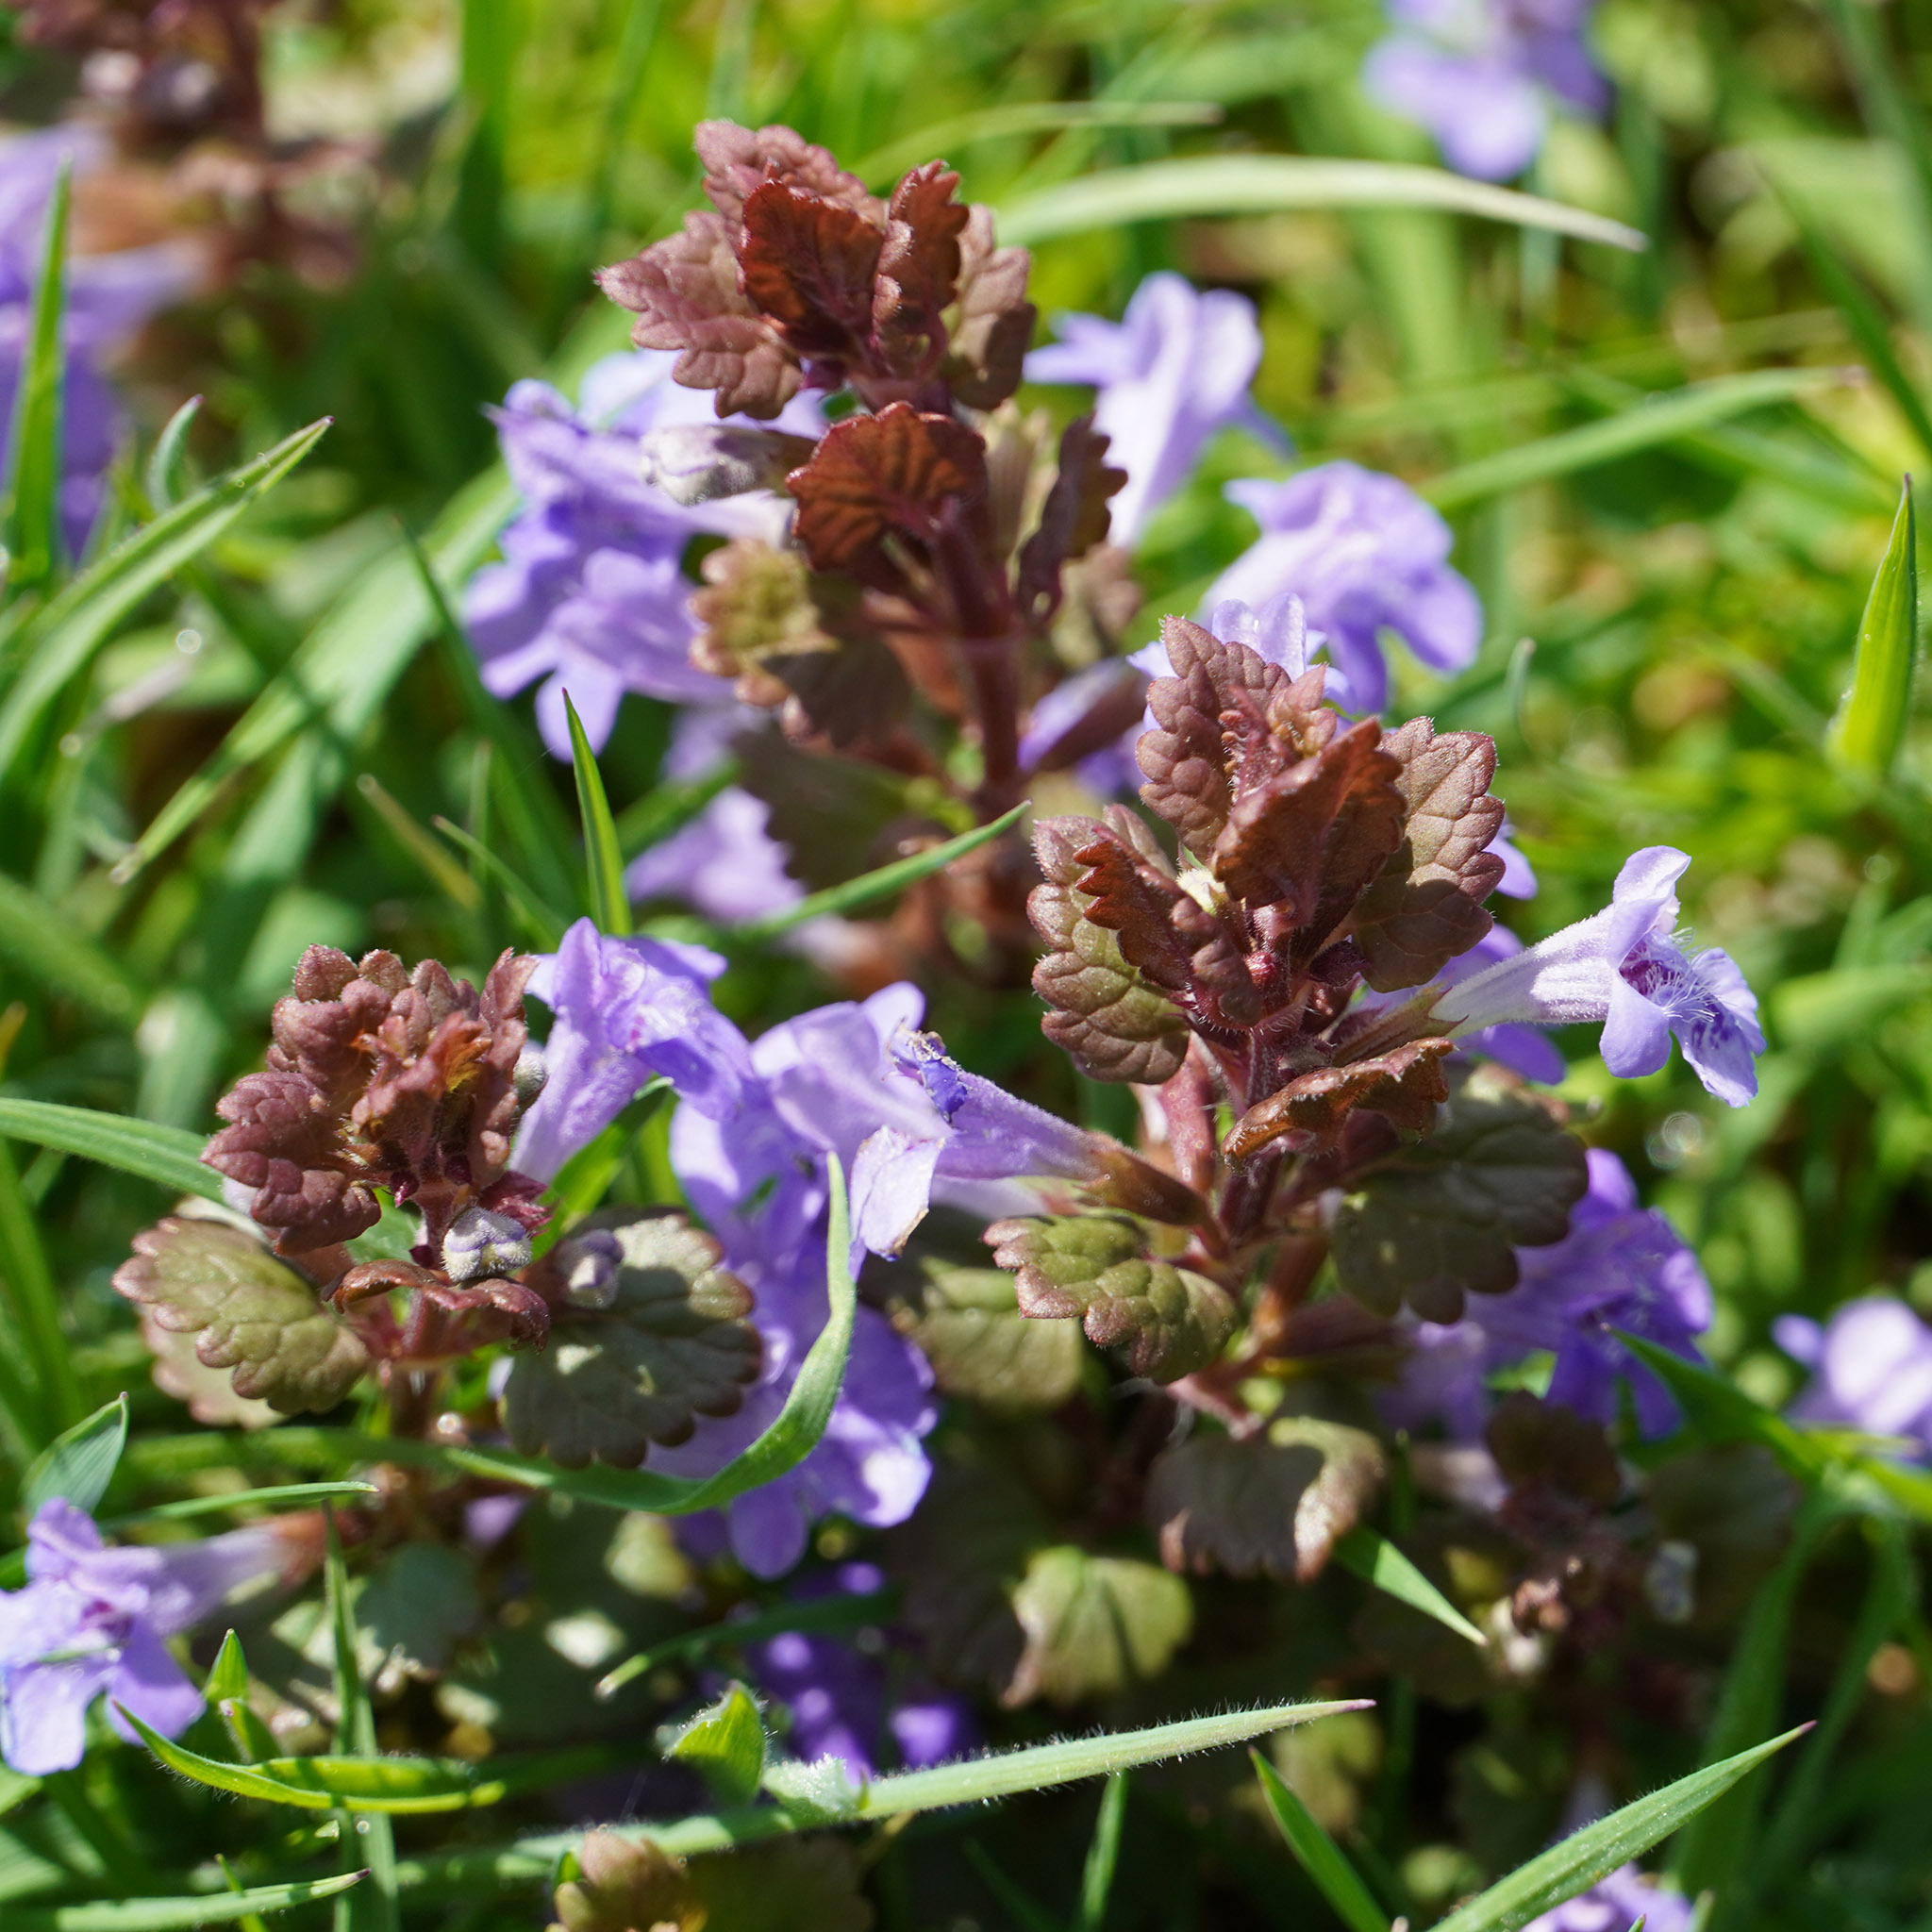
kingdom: Plantae
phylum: Tracheophyta
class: Magnoliopsida
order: Lamiales
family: Lamiaceae
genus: Glechoma
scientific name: Glechoma hederacea
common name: Ground ivy
